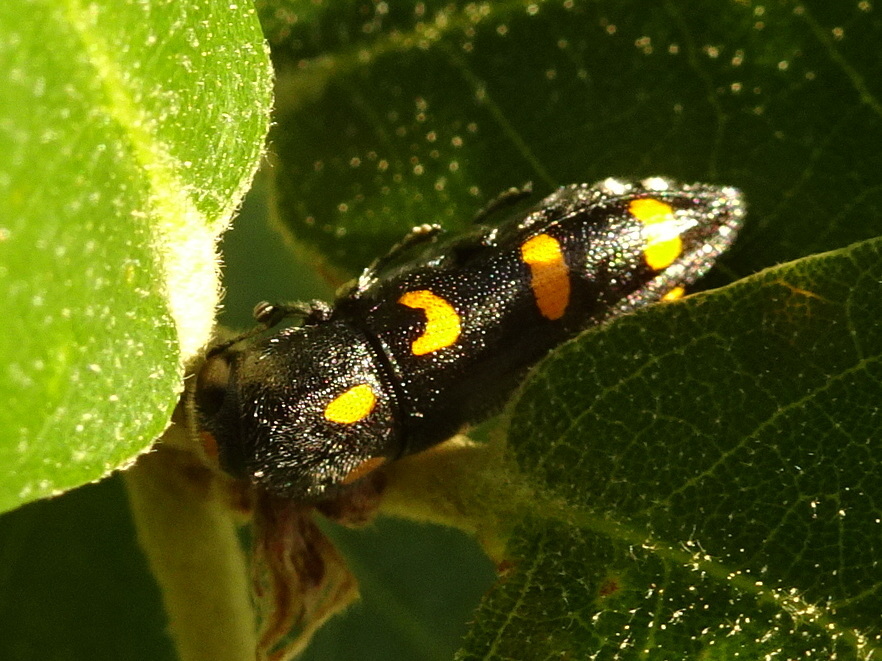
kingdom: Animalia
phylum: Arthropoda
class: Insecta
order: Coleoptera
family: Buprestidae
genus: Ptosima
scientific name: Ptosima undecimmaculata
